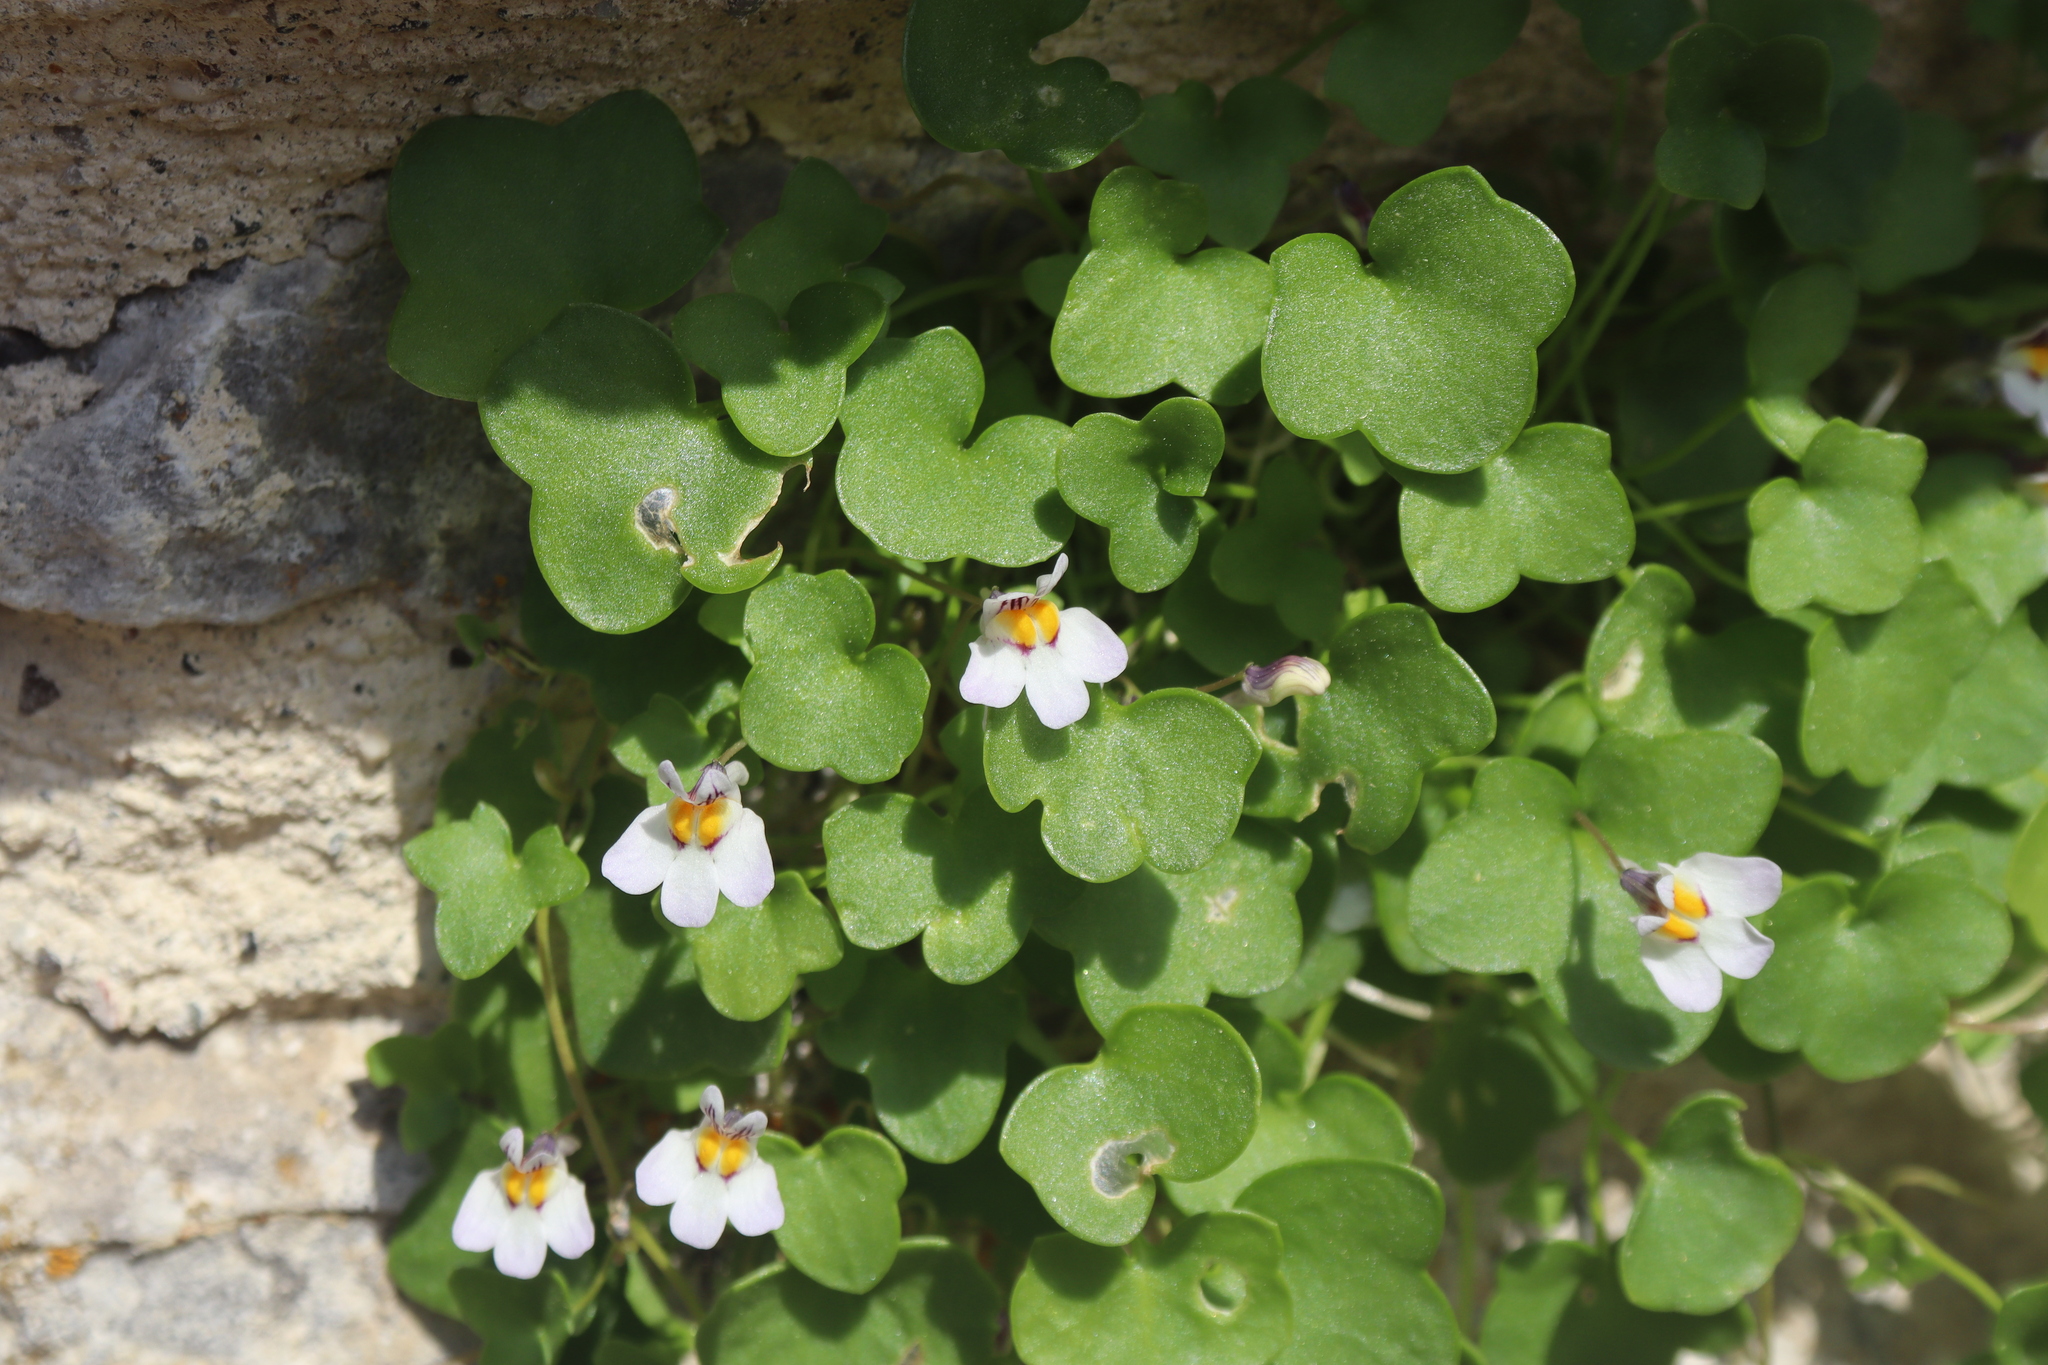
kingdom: Plantae
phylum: Tracheophyta
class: Magnoliopsida
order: Lamiales
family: Plantaginaceae
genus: Cymbalaria
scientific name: Cymbalaria longipes
